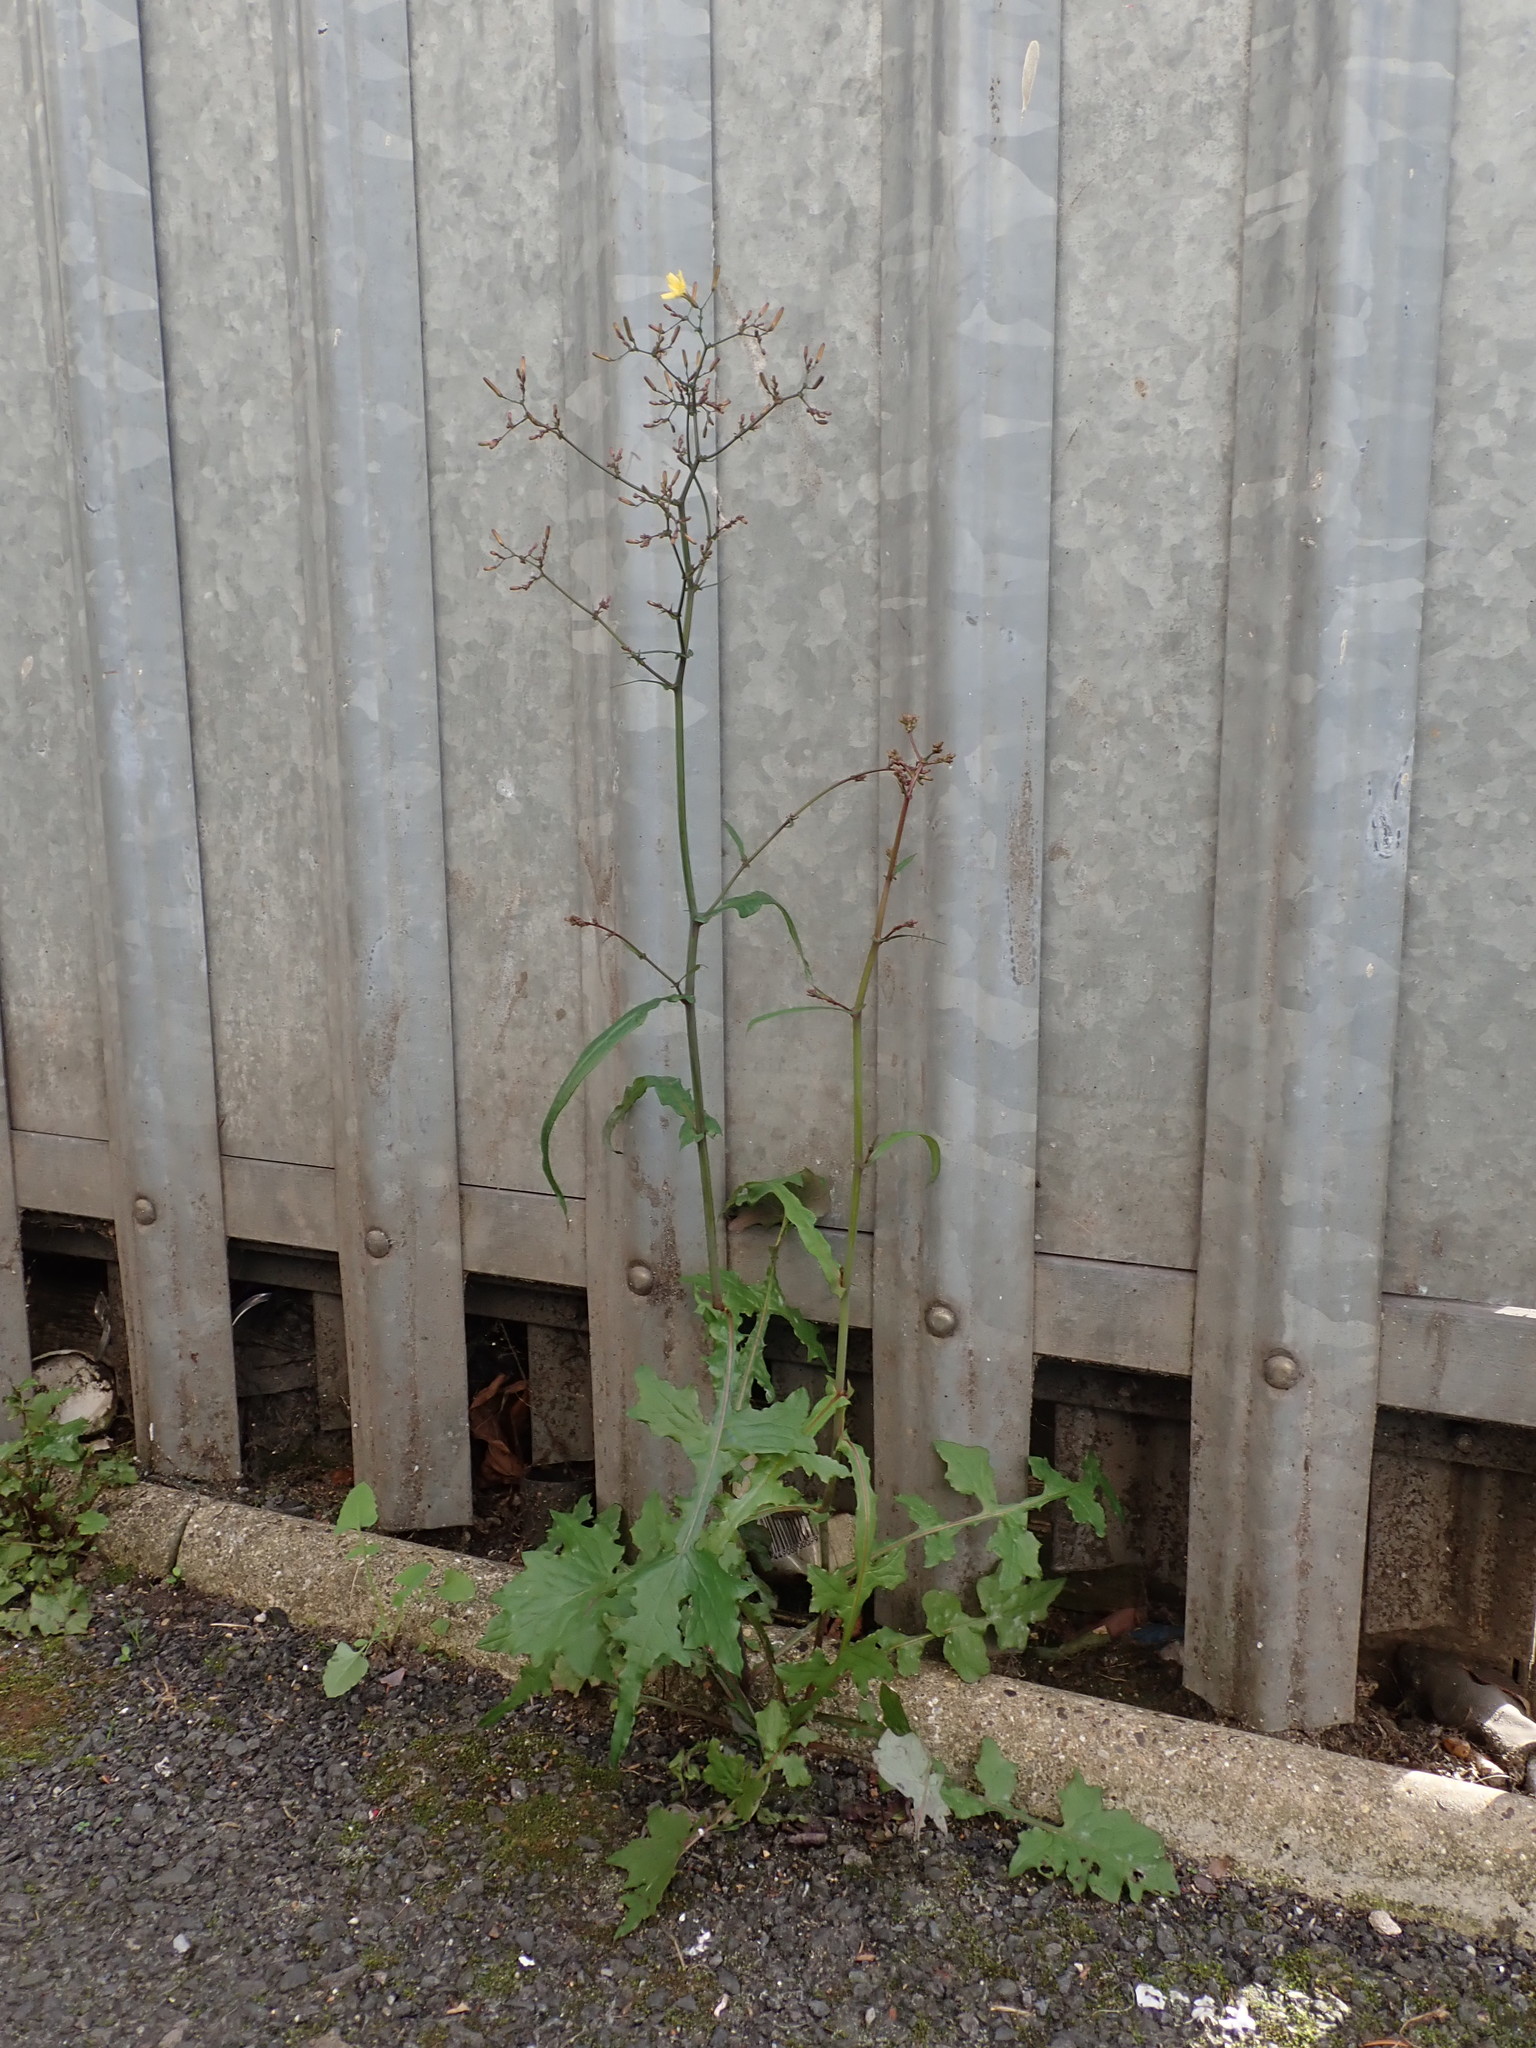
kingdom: Plantae
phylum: Tracheophyta
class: Magnoliopsida
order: Asterales
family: Asteraceae
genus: Mycelis
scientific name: Mycelis muralis
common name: Wall lettuce
